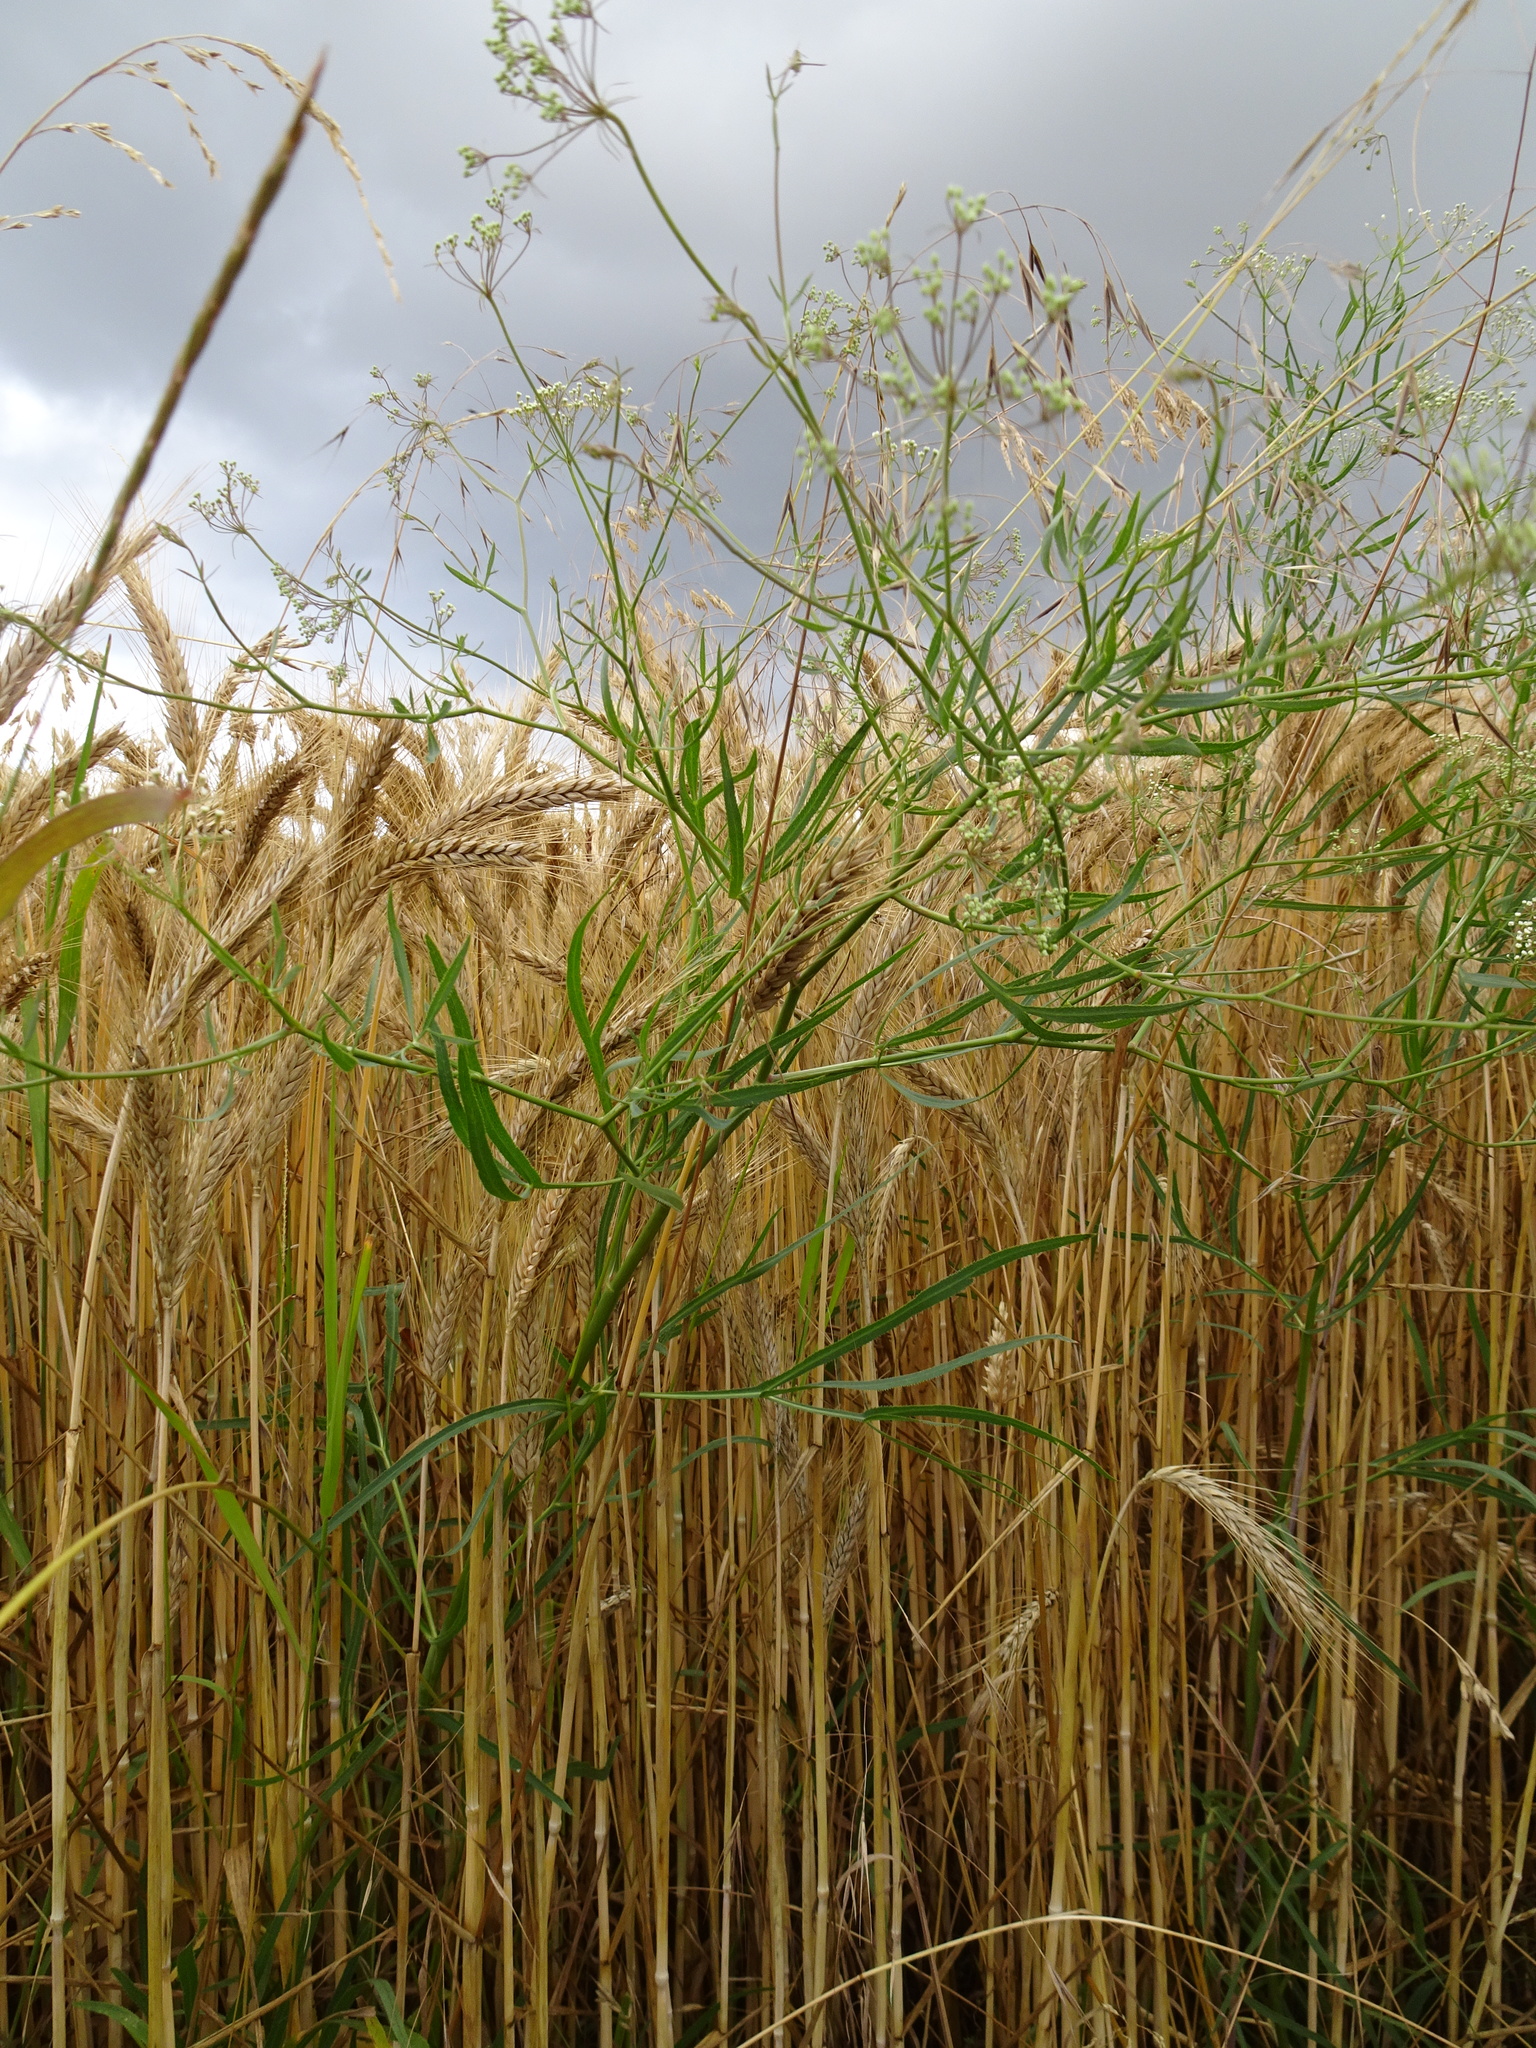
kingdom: Plantae
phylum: Tracheophyta
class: Magnoliopsida
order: Apiales
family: Apiaceae
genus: Falcaria
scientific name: Falcaria vulgaris
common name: Longleaf
